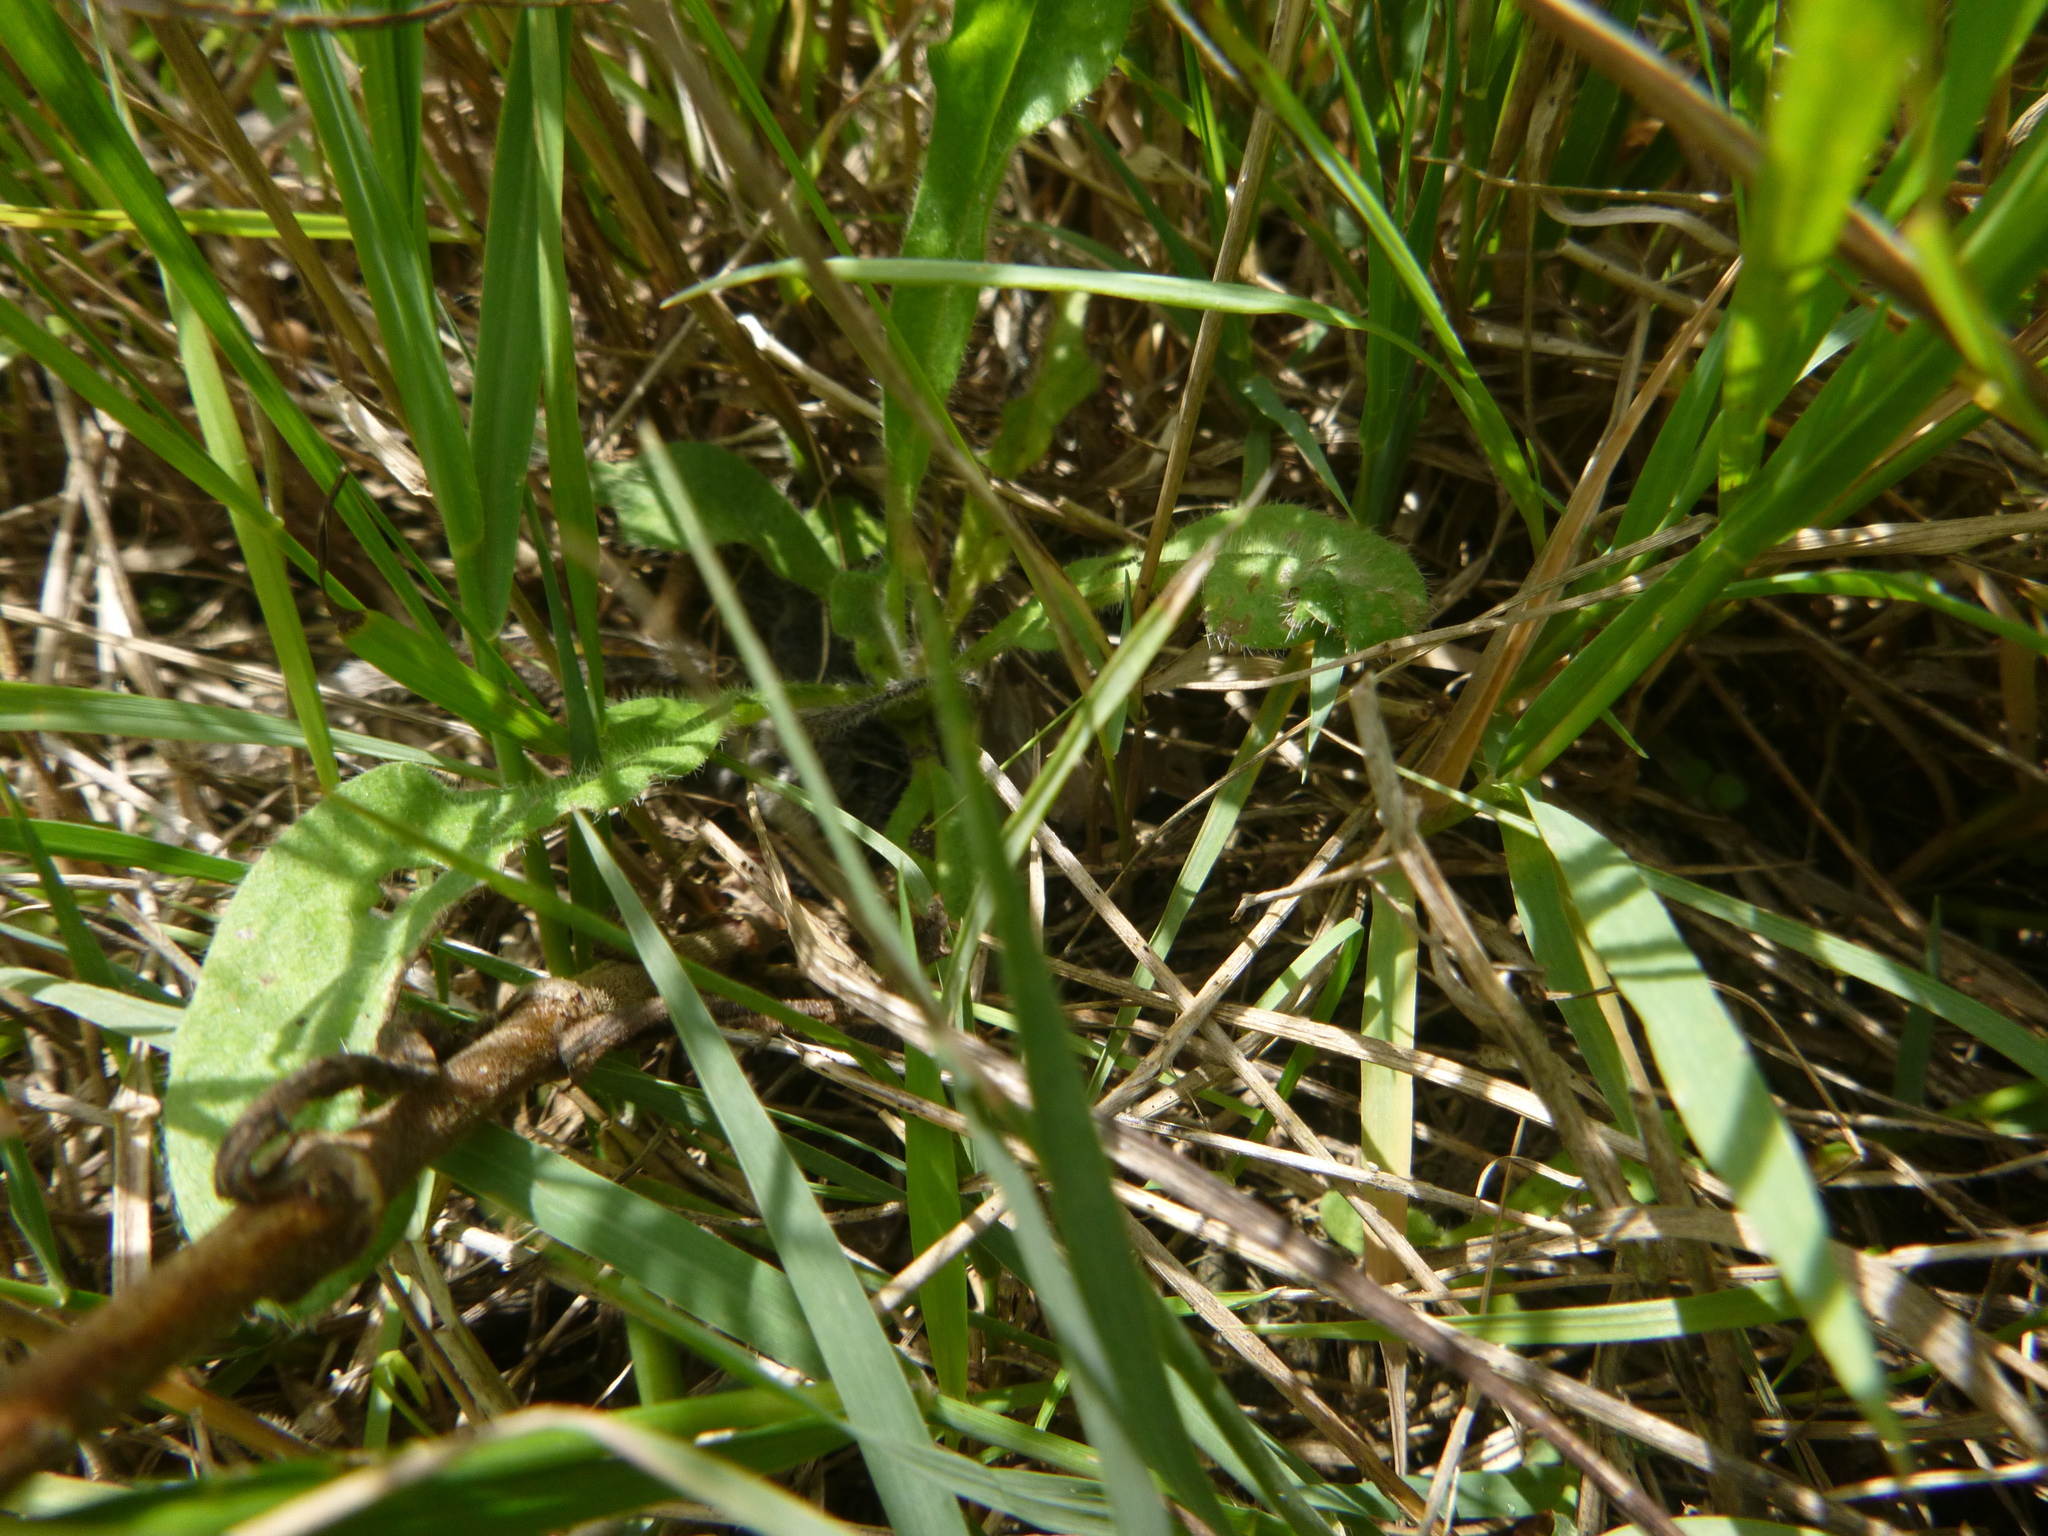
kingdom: Plantae
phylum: Tracheophyta
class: Magnoliopsida
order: Caryophyllales
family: Caryophyllaceae
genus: Silene
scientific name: Silene latifolia
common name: White campion
